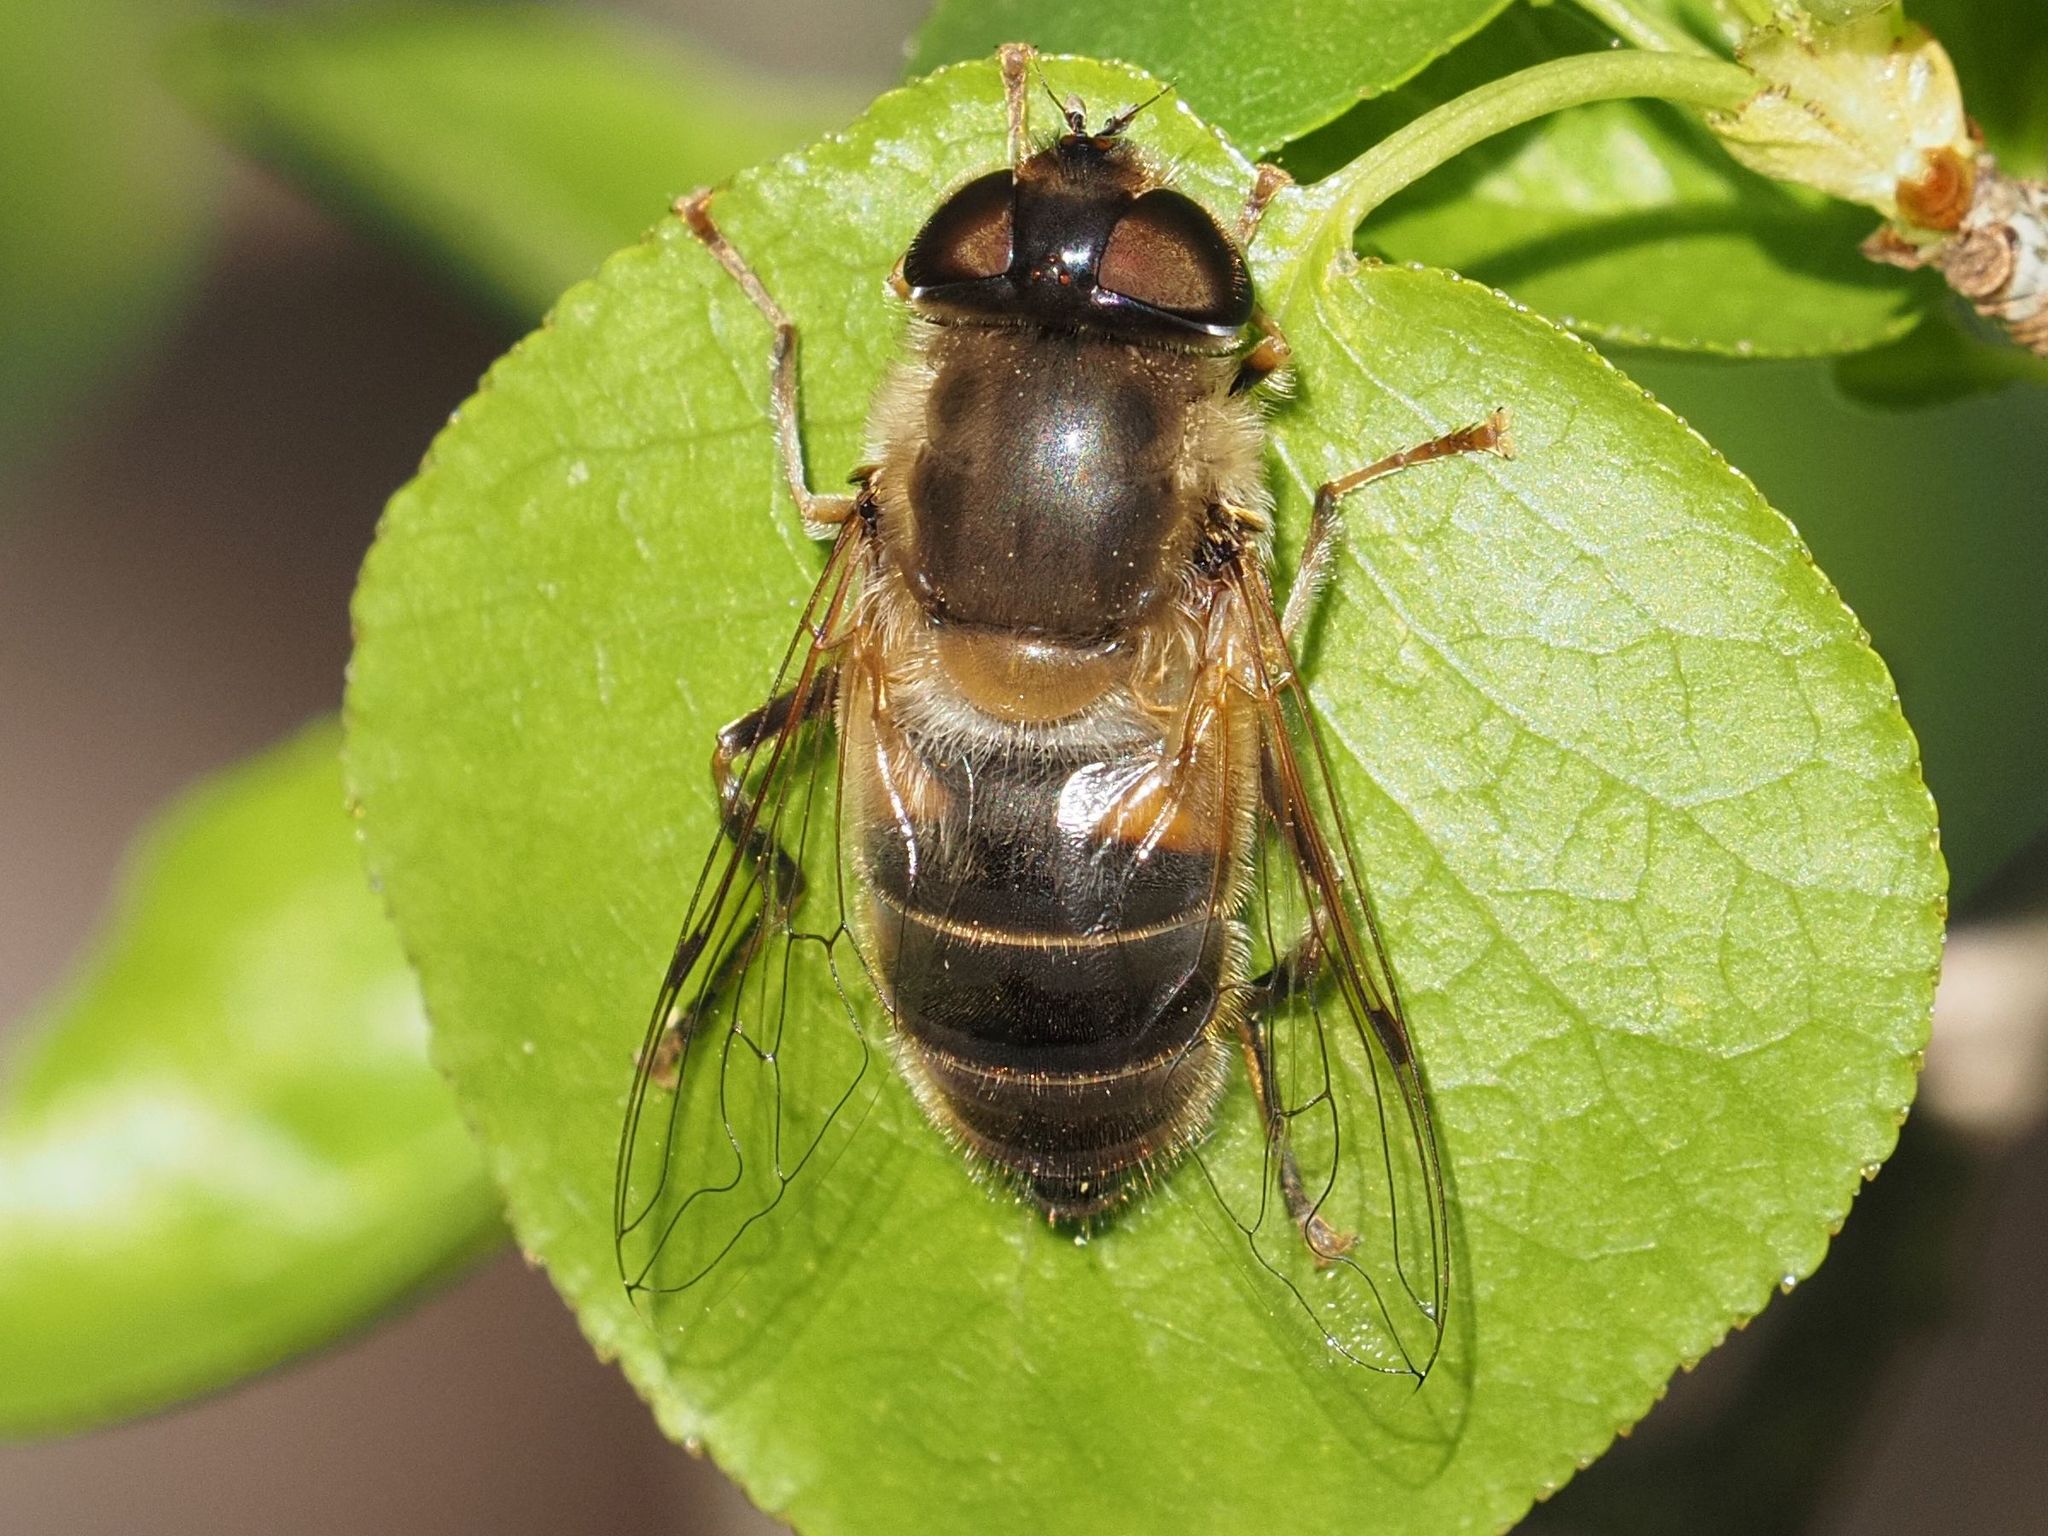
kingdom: Animalia
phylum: Arthropoda
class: Insecta
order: Diptera
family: Syrphidae
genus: Eristalis
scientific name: Eristalis pertinax
